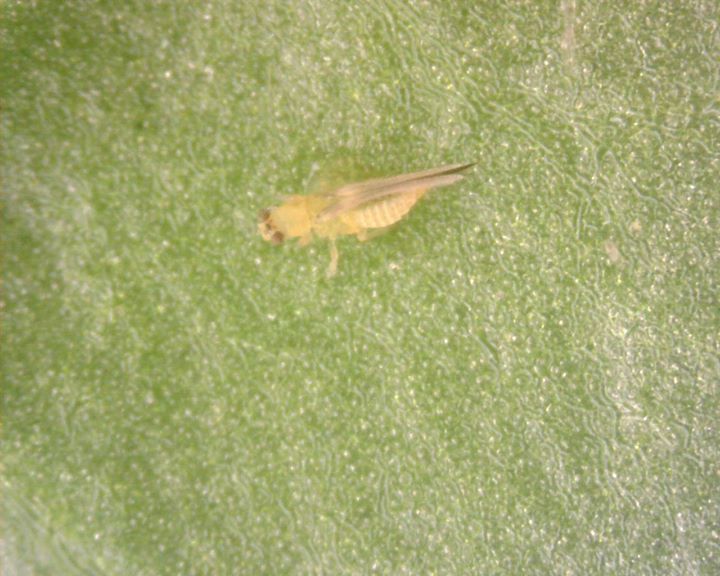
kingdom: Animalia
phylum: Arthropoda
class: Insecta
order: Thysanoptera
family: Thripidae
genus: Scirtothrips
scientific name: Scirtothrips dorsalis
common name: Thrips
